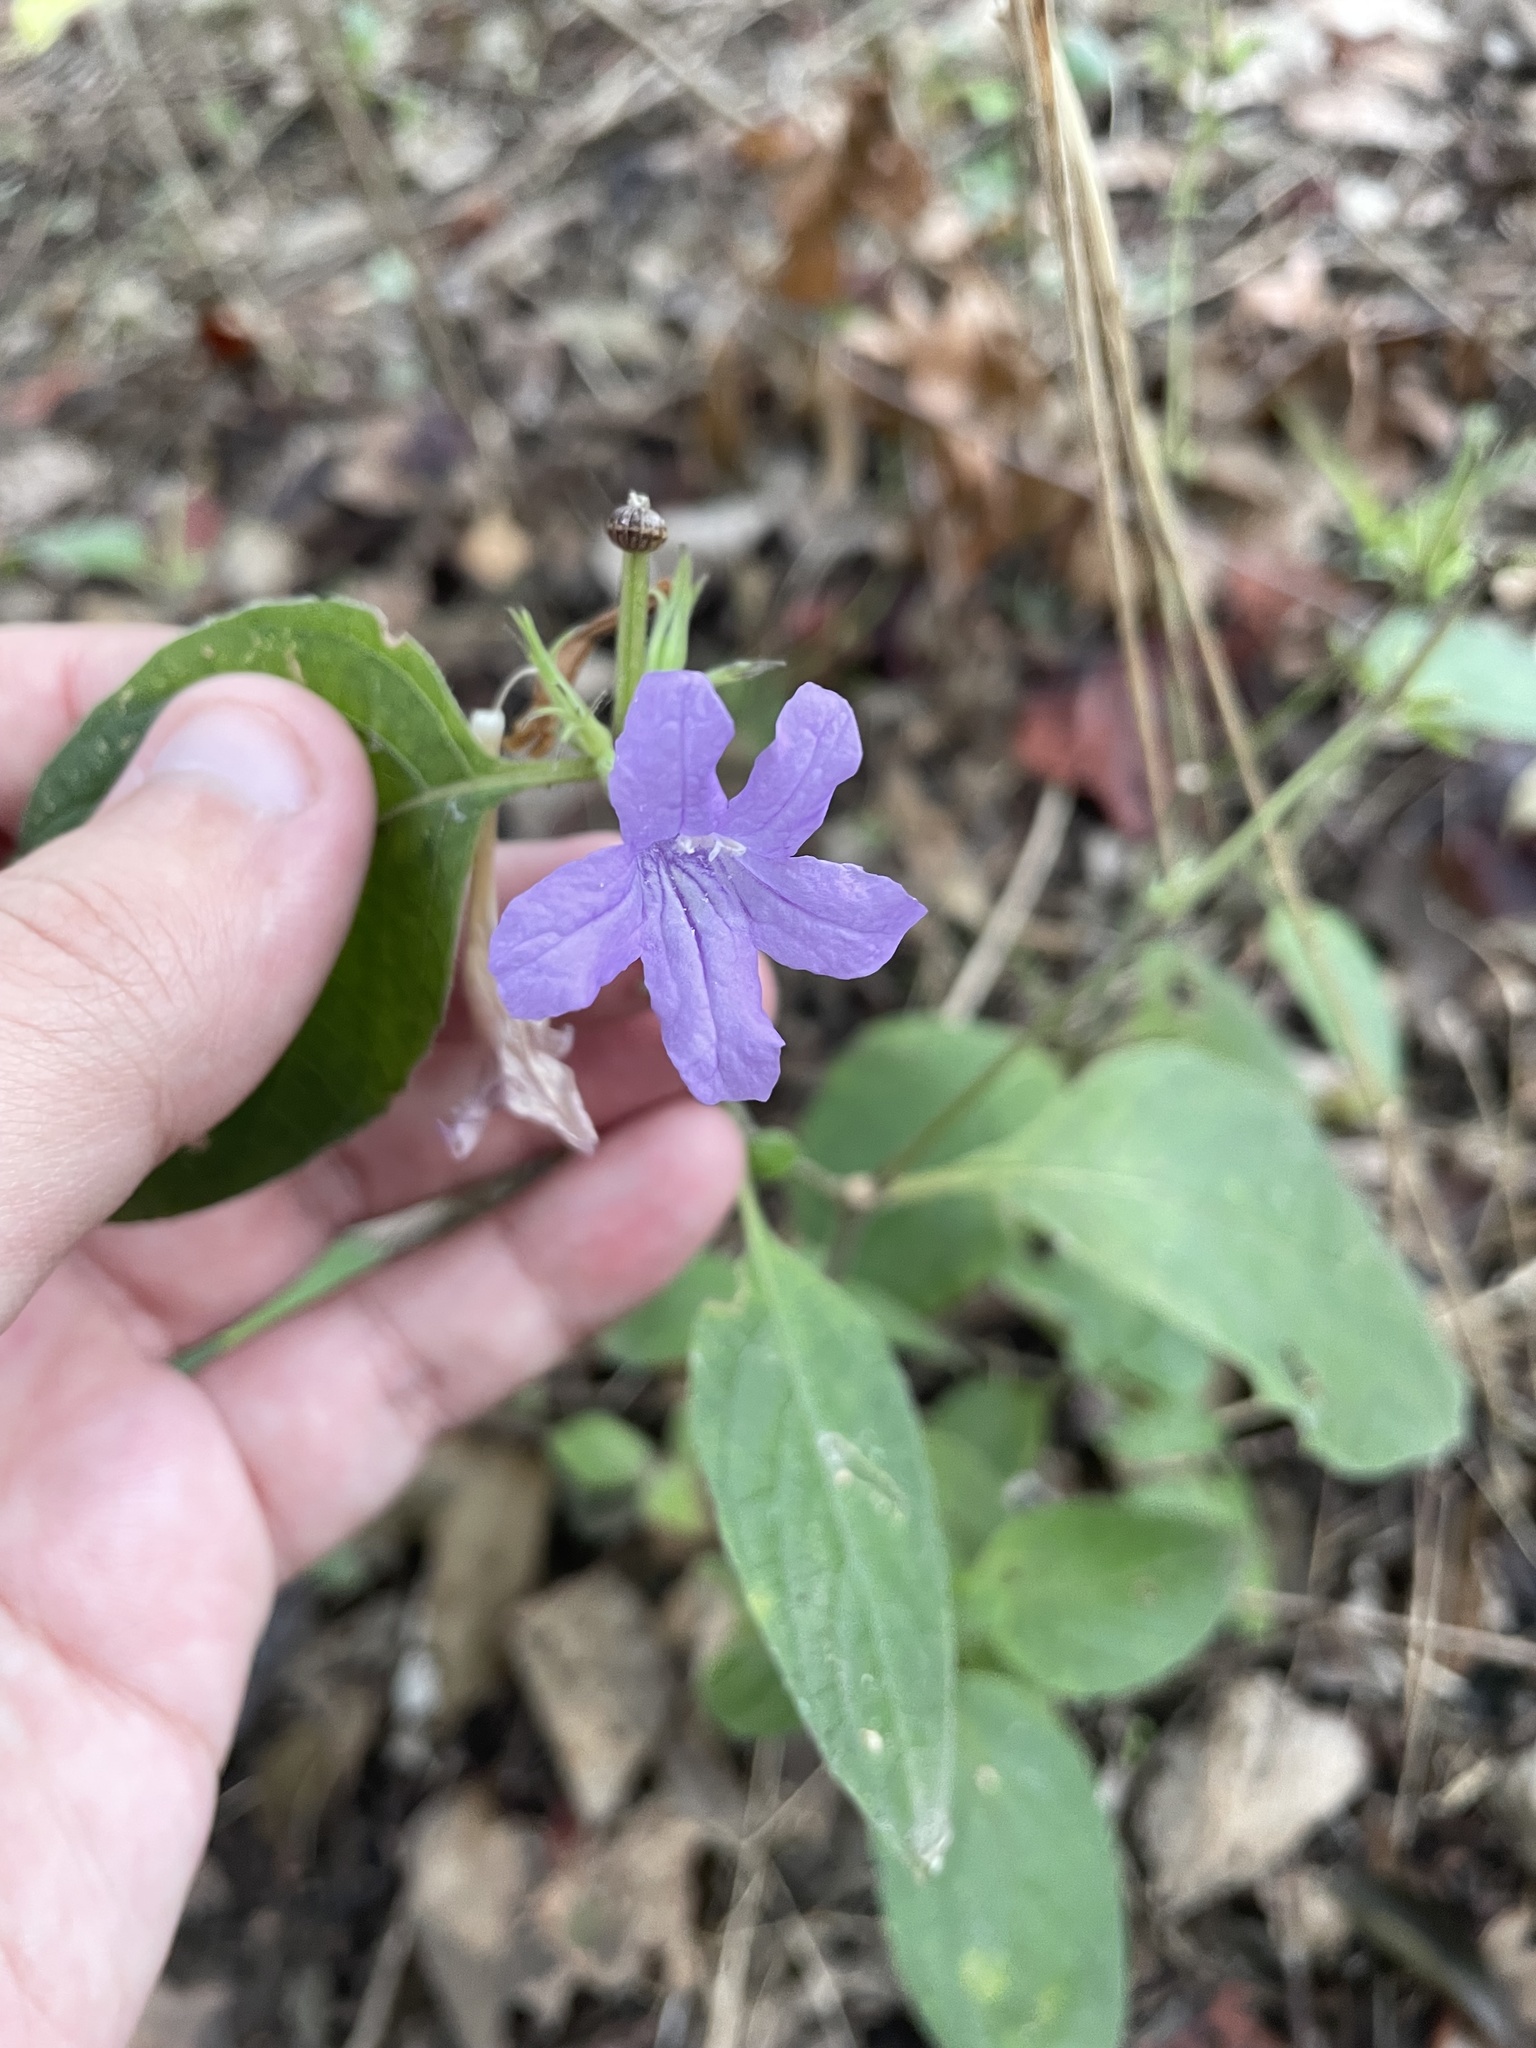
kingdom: Plantae
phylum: Tracheophyta
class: Magnoliopsida
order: Lamiales
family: Acanthaceae
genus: Ruellia
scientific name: Ruellia drummondiana
